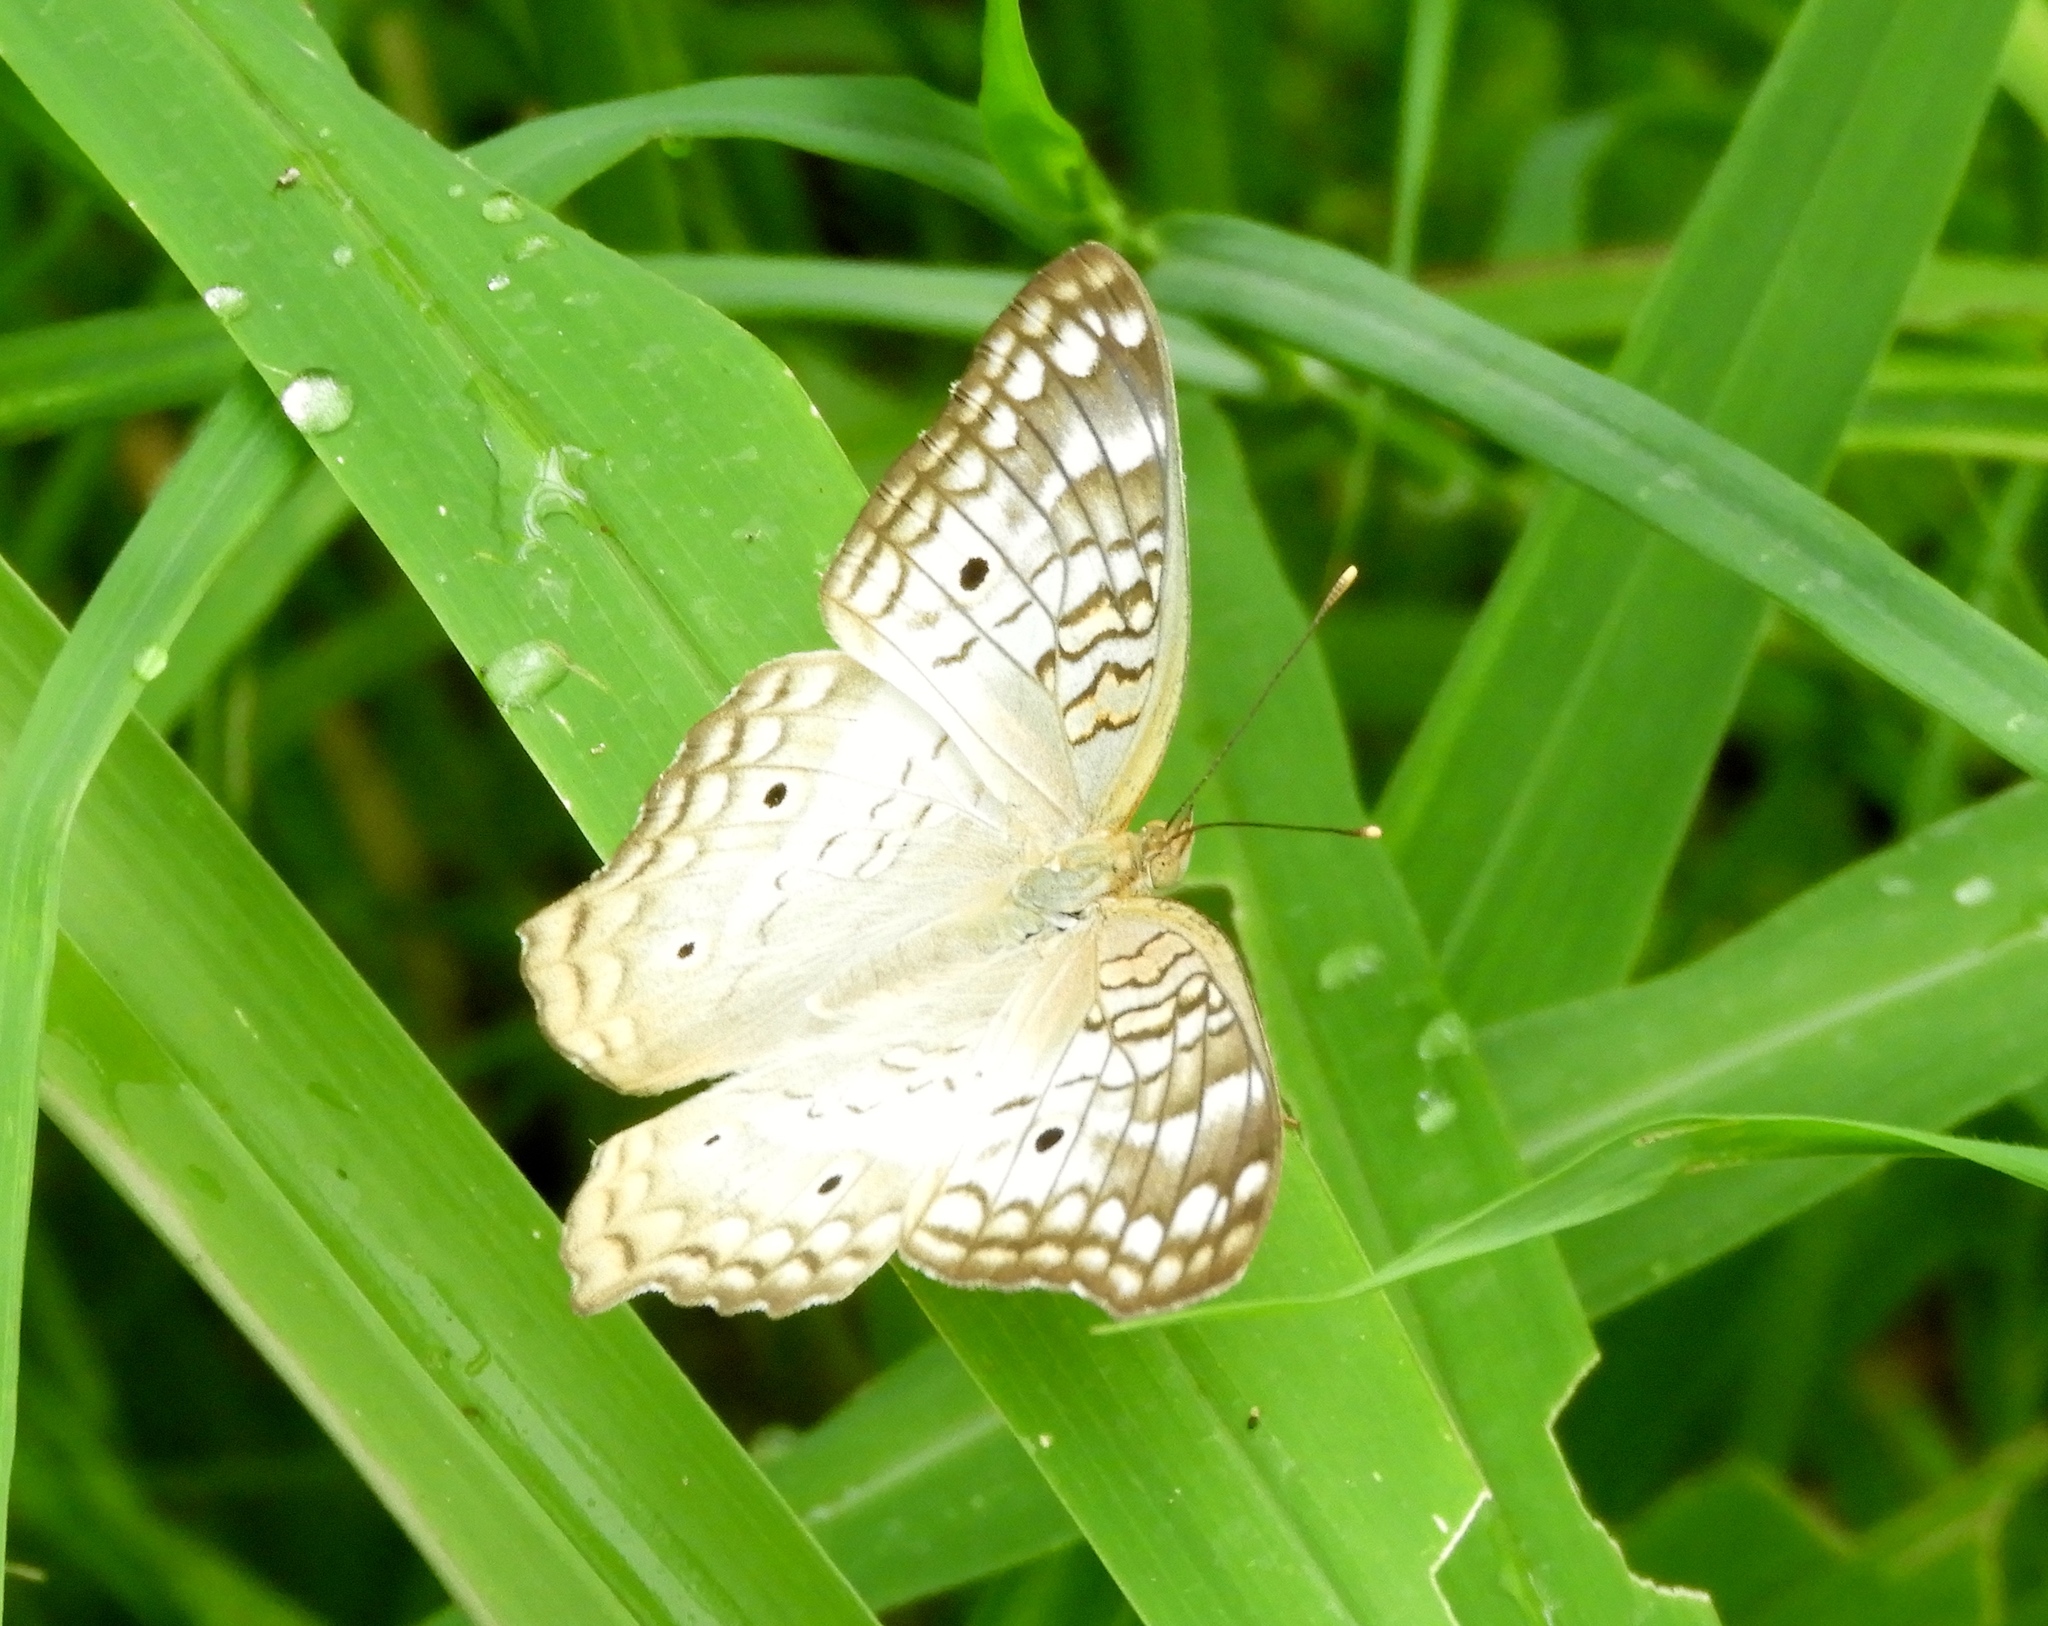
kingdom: Animalia
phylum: Arthropoda
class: Insecta
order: Lepidoptera
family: Nymphalidae
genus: Anartia
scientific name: Anartia jatrophae
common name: White peacock
